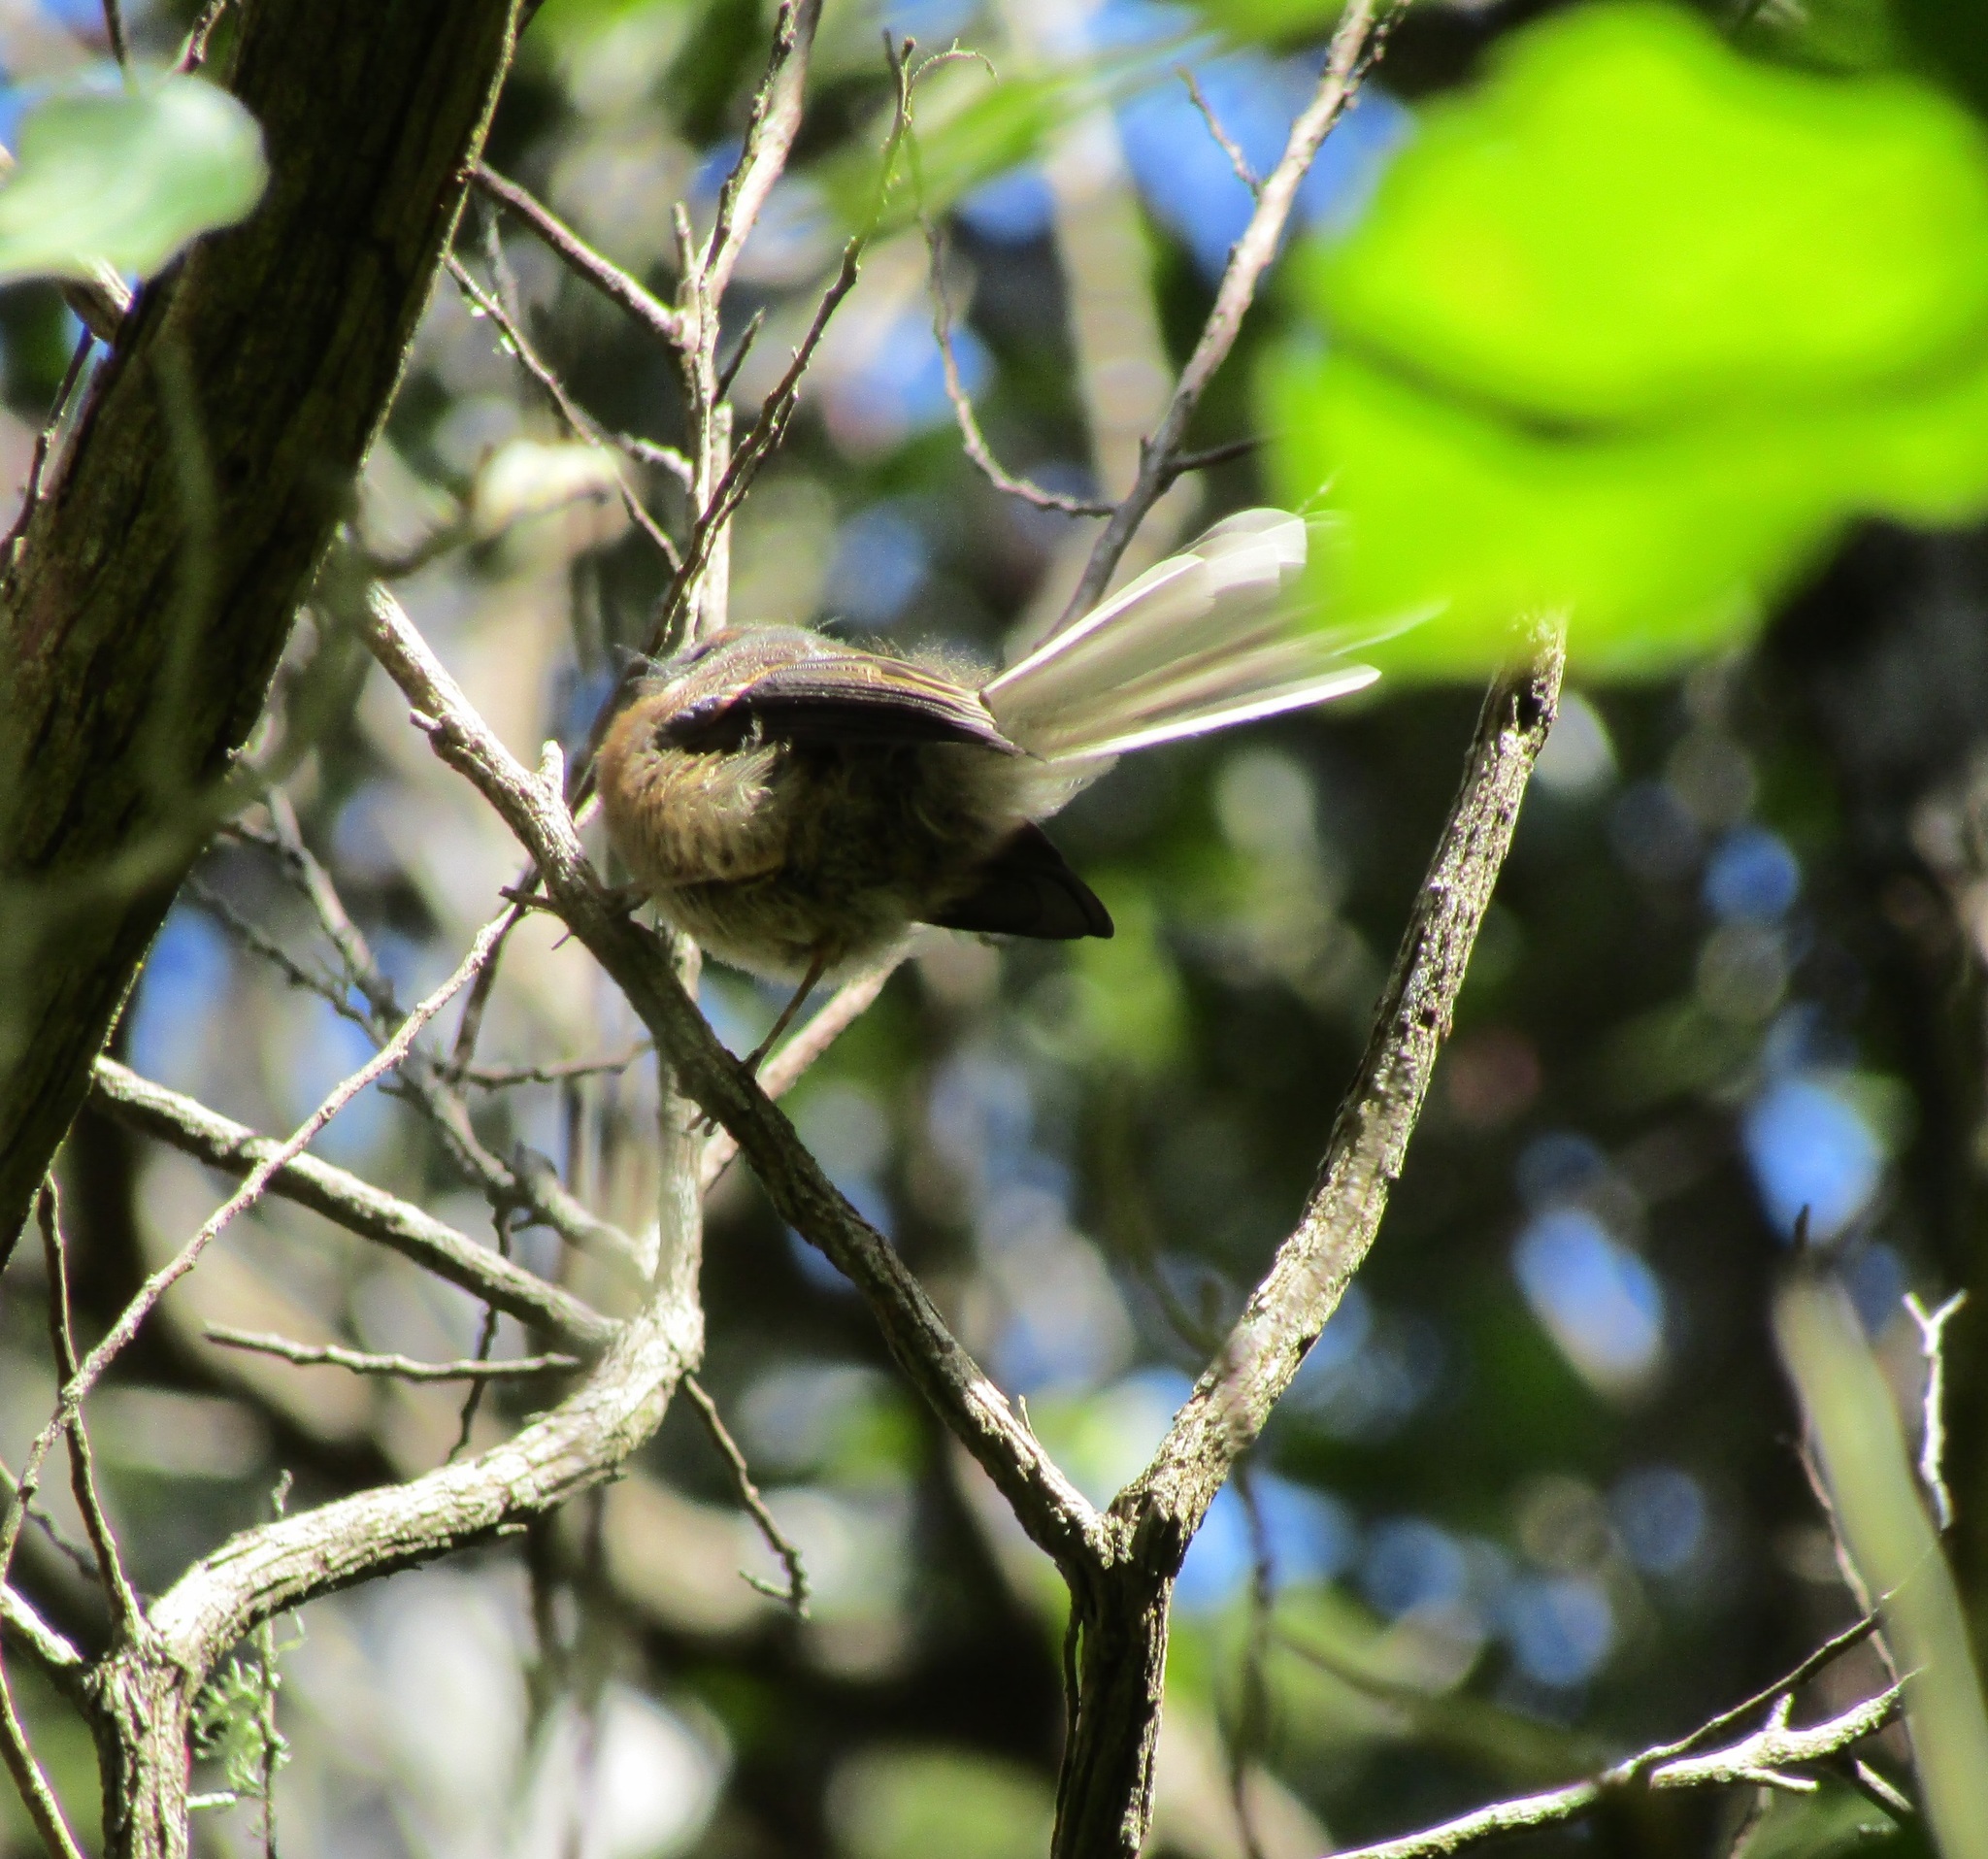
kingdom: Animalia
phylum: Chordata
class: Aves
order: Passeriformes
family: Rhipiduridae
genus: Rhipidura
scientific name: Rhipidura fuliginosa
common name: New zealand fantail
